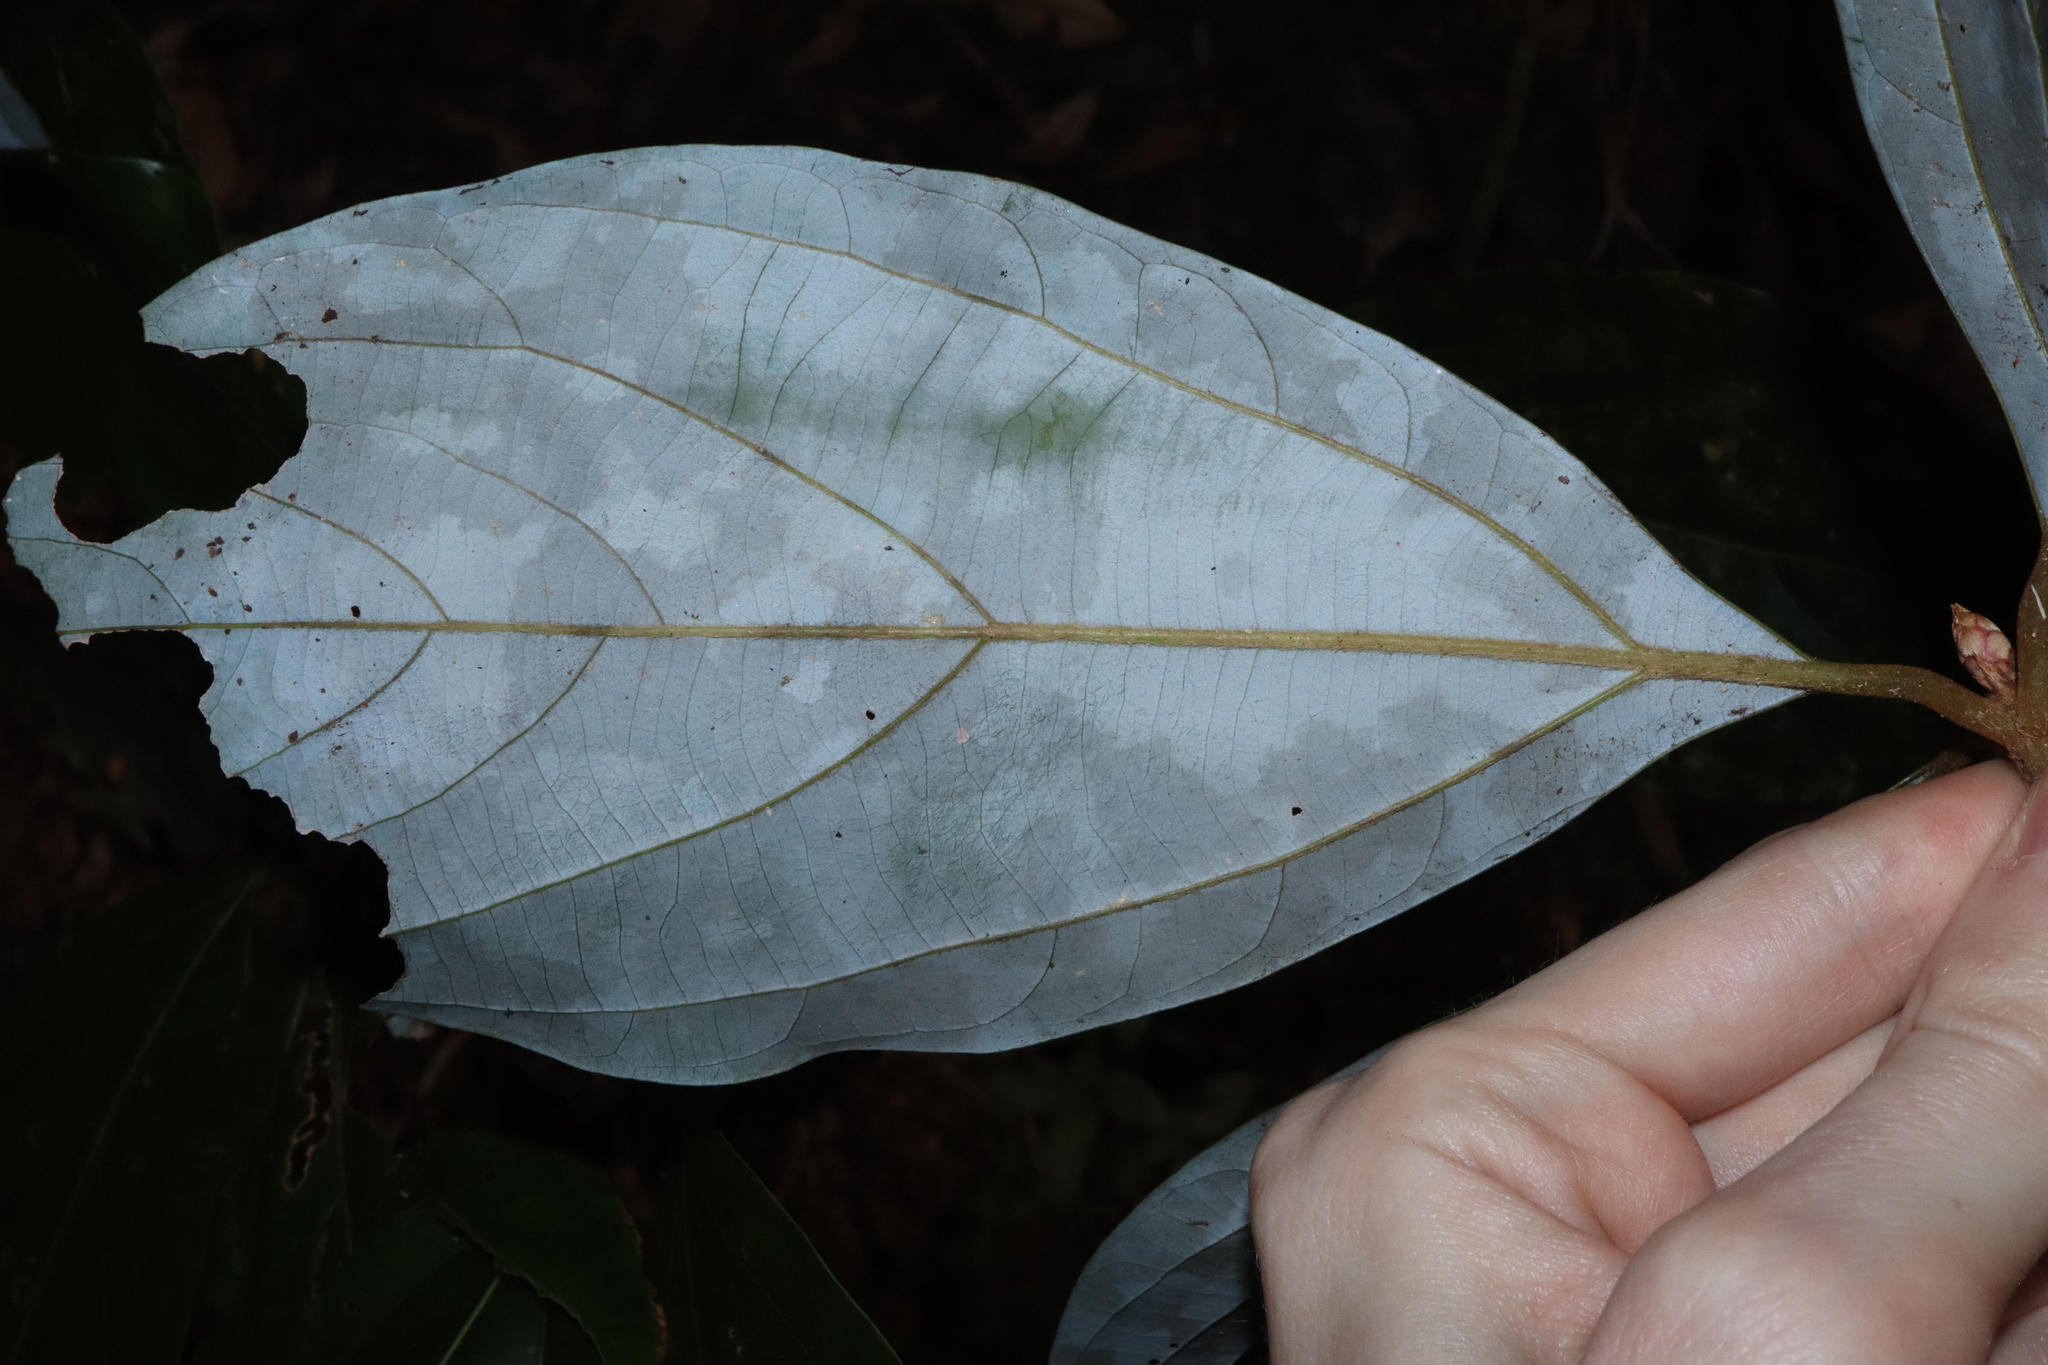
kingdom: Plantae
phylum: Tracheophyta
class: Magnoliopsida
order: Laurales
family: Lauraceae
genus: Neolitsea
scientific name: Neolitsea dealbata
